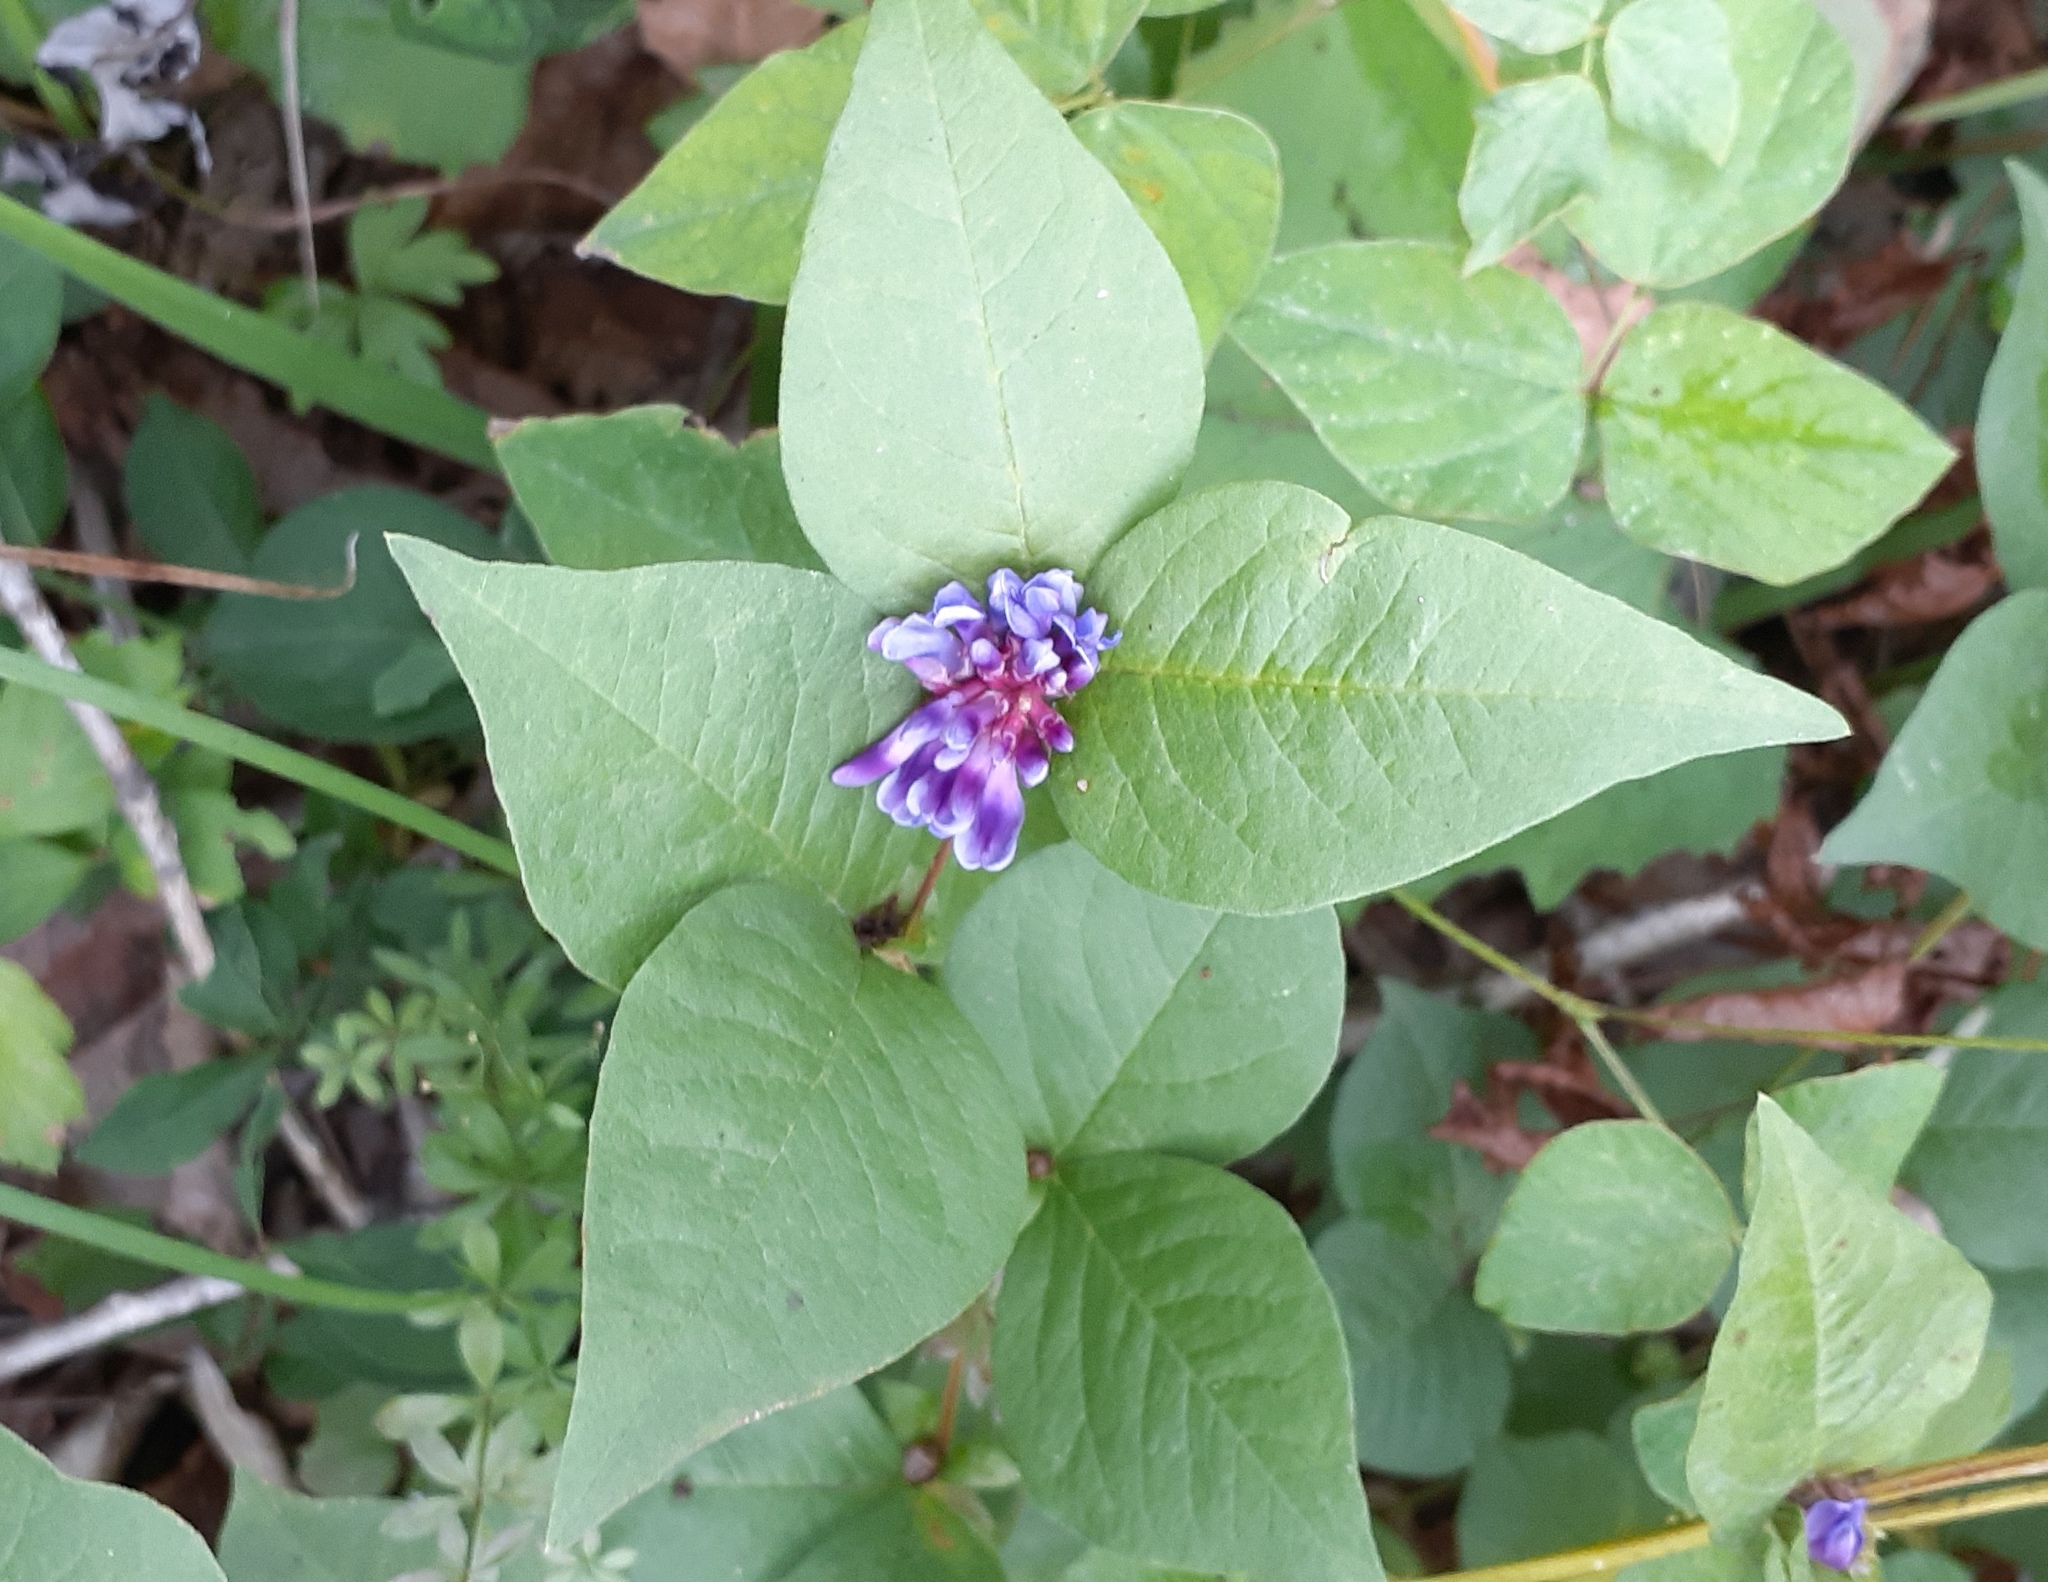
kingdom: Plantae
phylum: Tracheophyta
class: Magnoliopsida
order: Fabales
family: Fabaceae
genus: Vicia
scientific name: Vicia ohwiana
